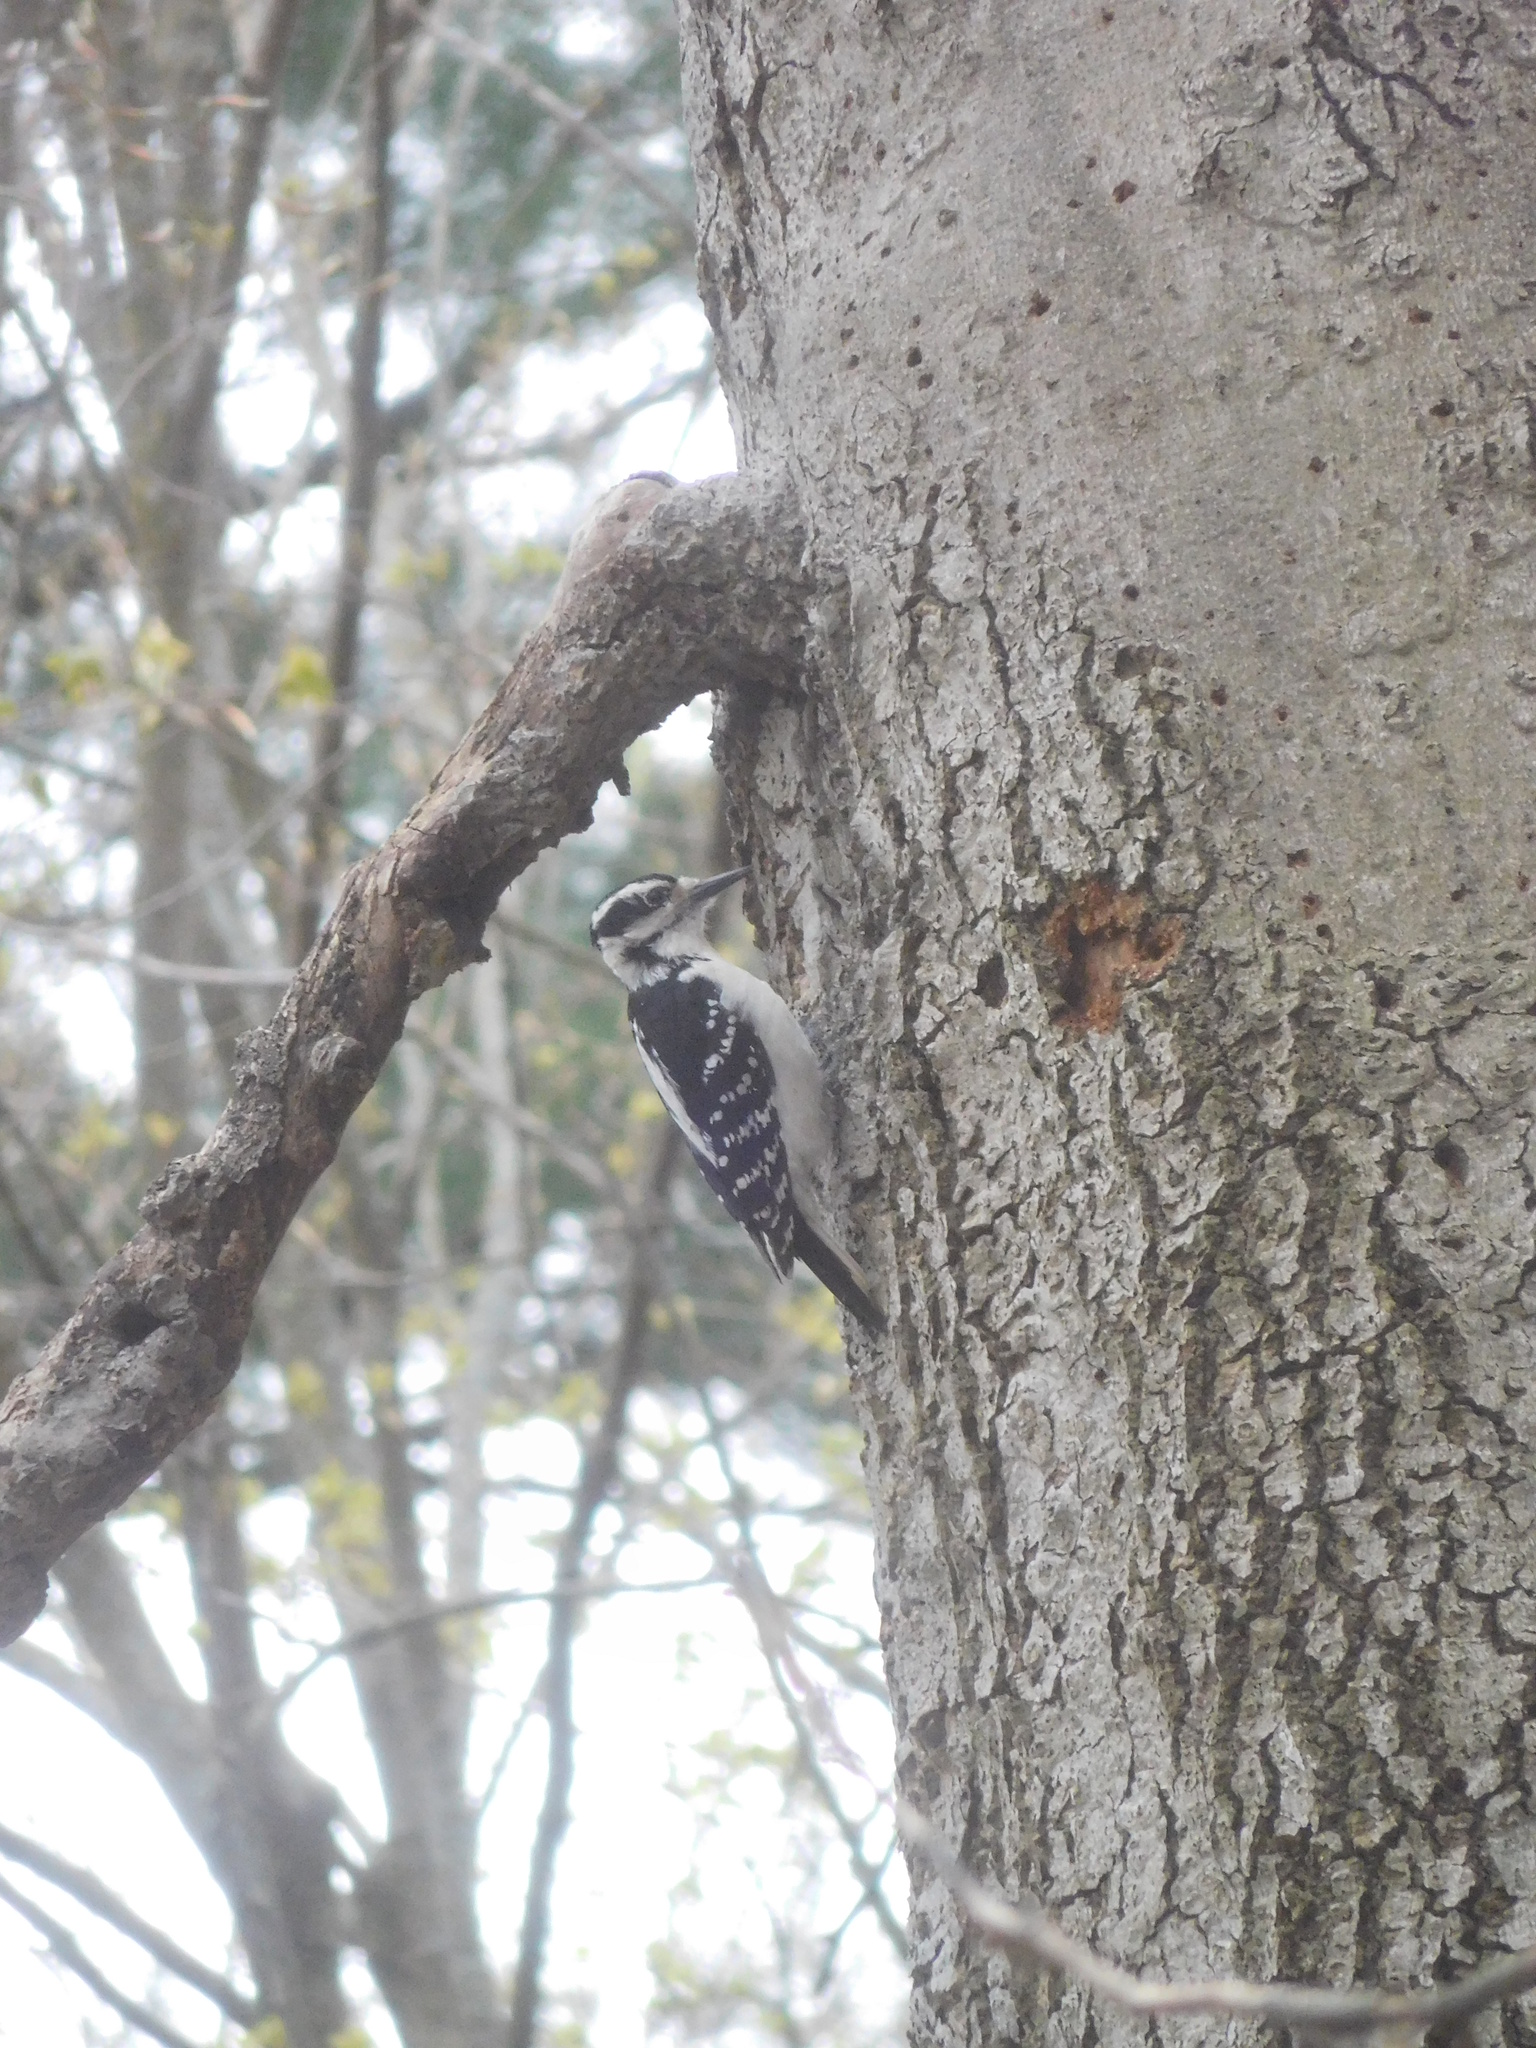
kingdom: Animalia
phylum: Chordata
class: Aves
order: Piciformes
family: Picidae
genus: Leuconotopicus
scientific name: Leuconotopicus villosus
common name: Hairy woodpecker
